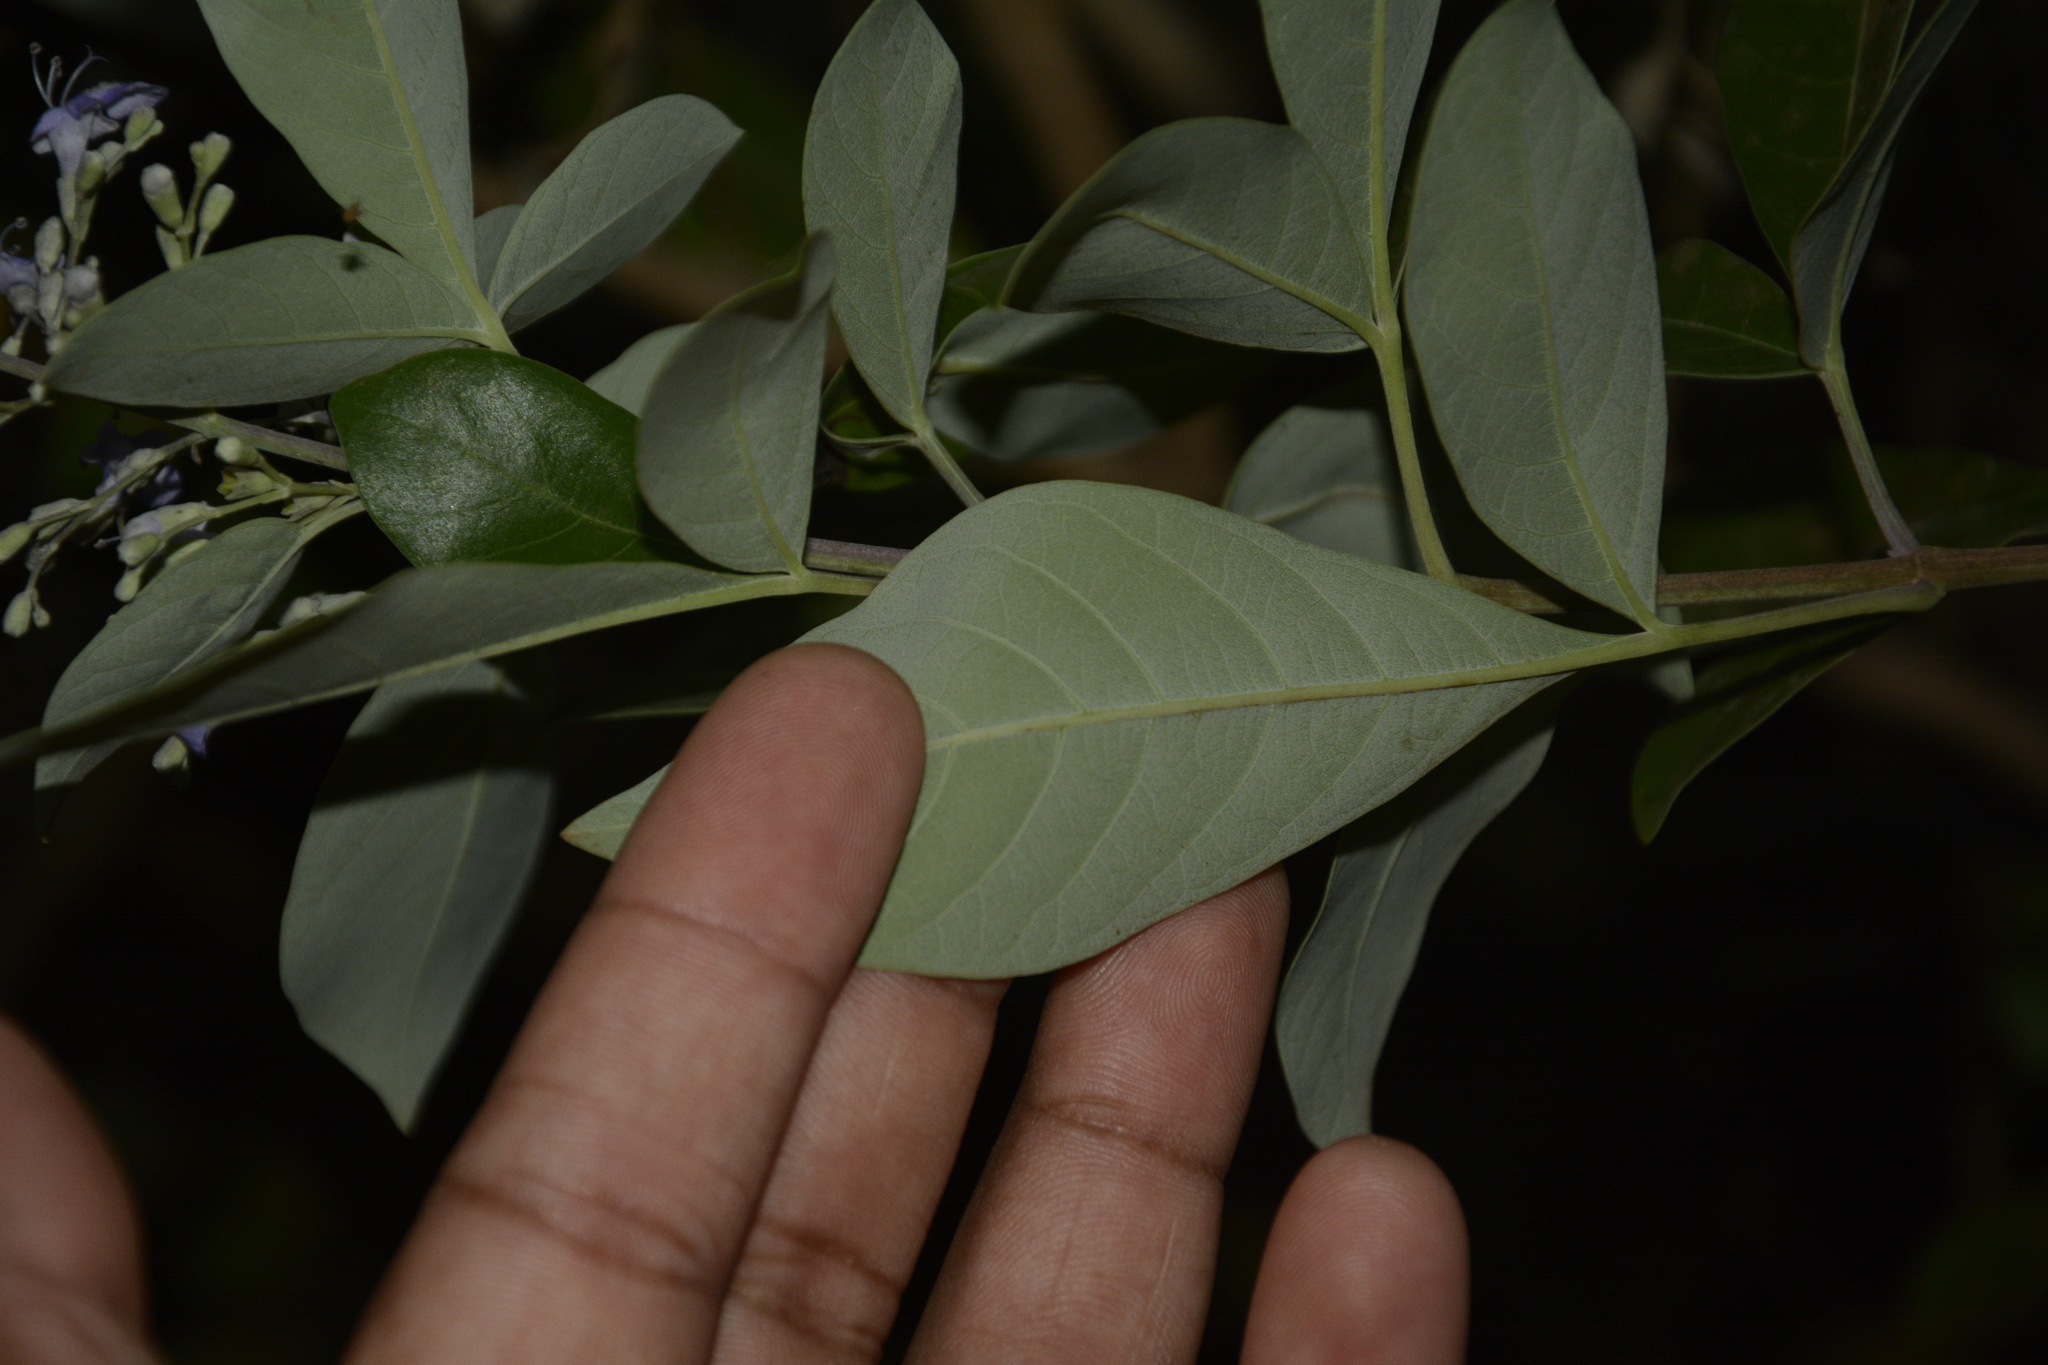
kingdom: Plantae
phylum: Tracheophyta
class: Magnoliopsida
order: Lamiales
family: Lamiaceae
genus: Vitex
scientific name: Vitex trifolia
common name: Simpleleaf chastetree
